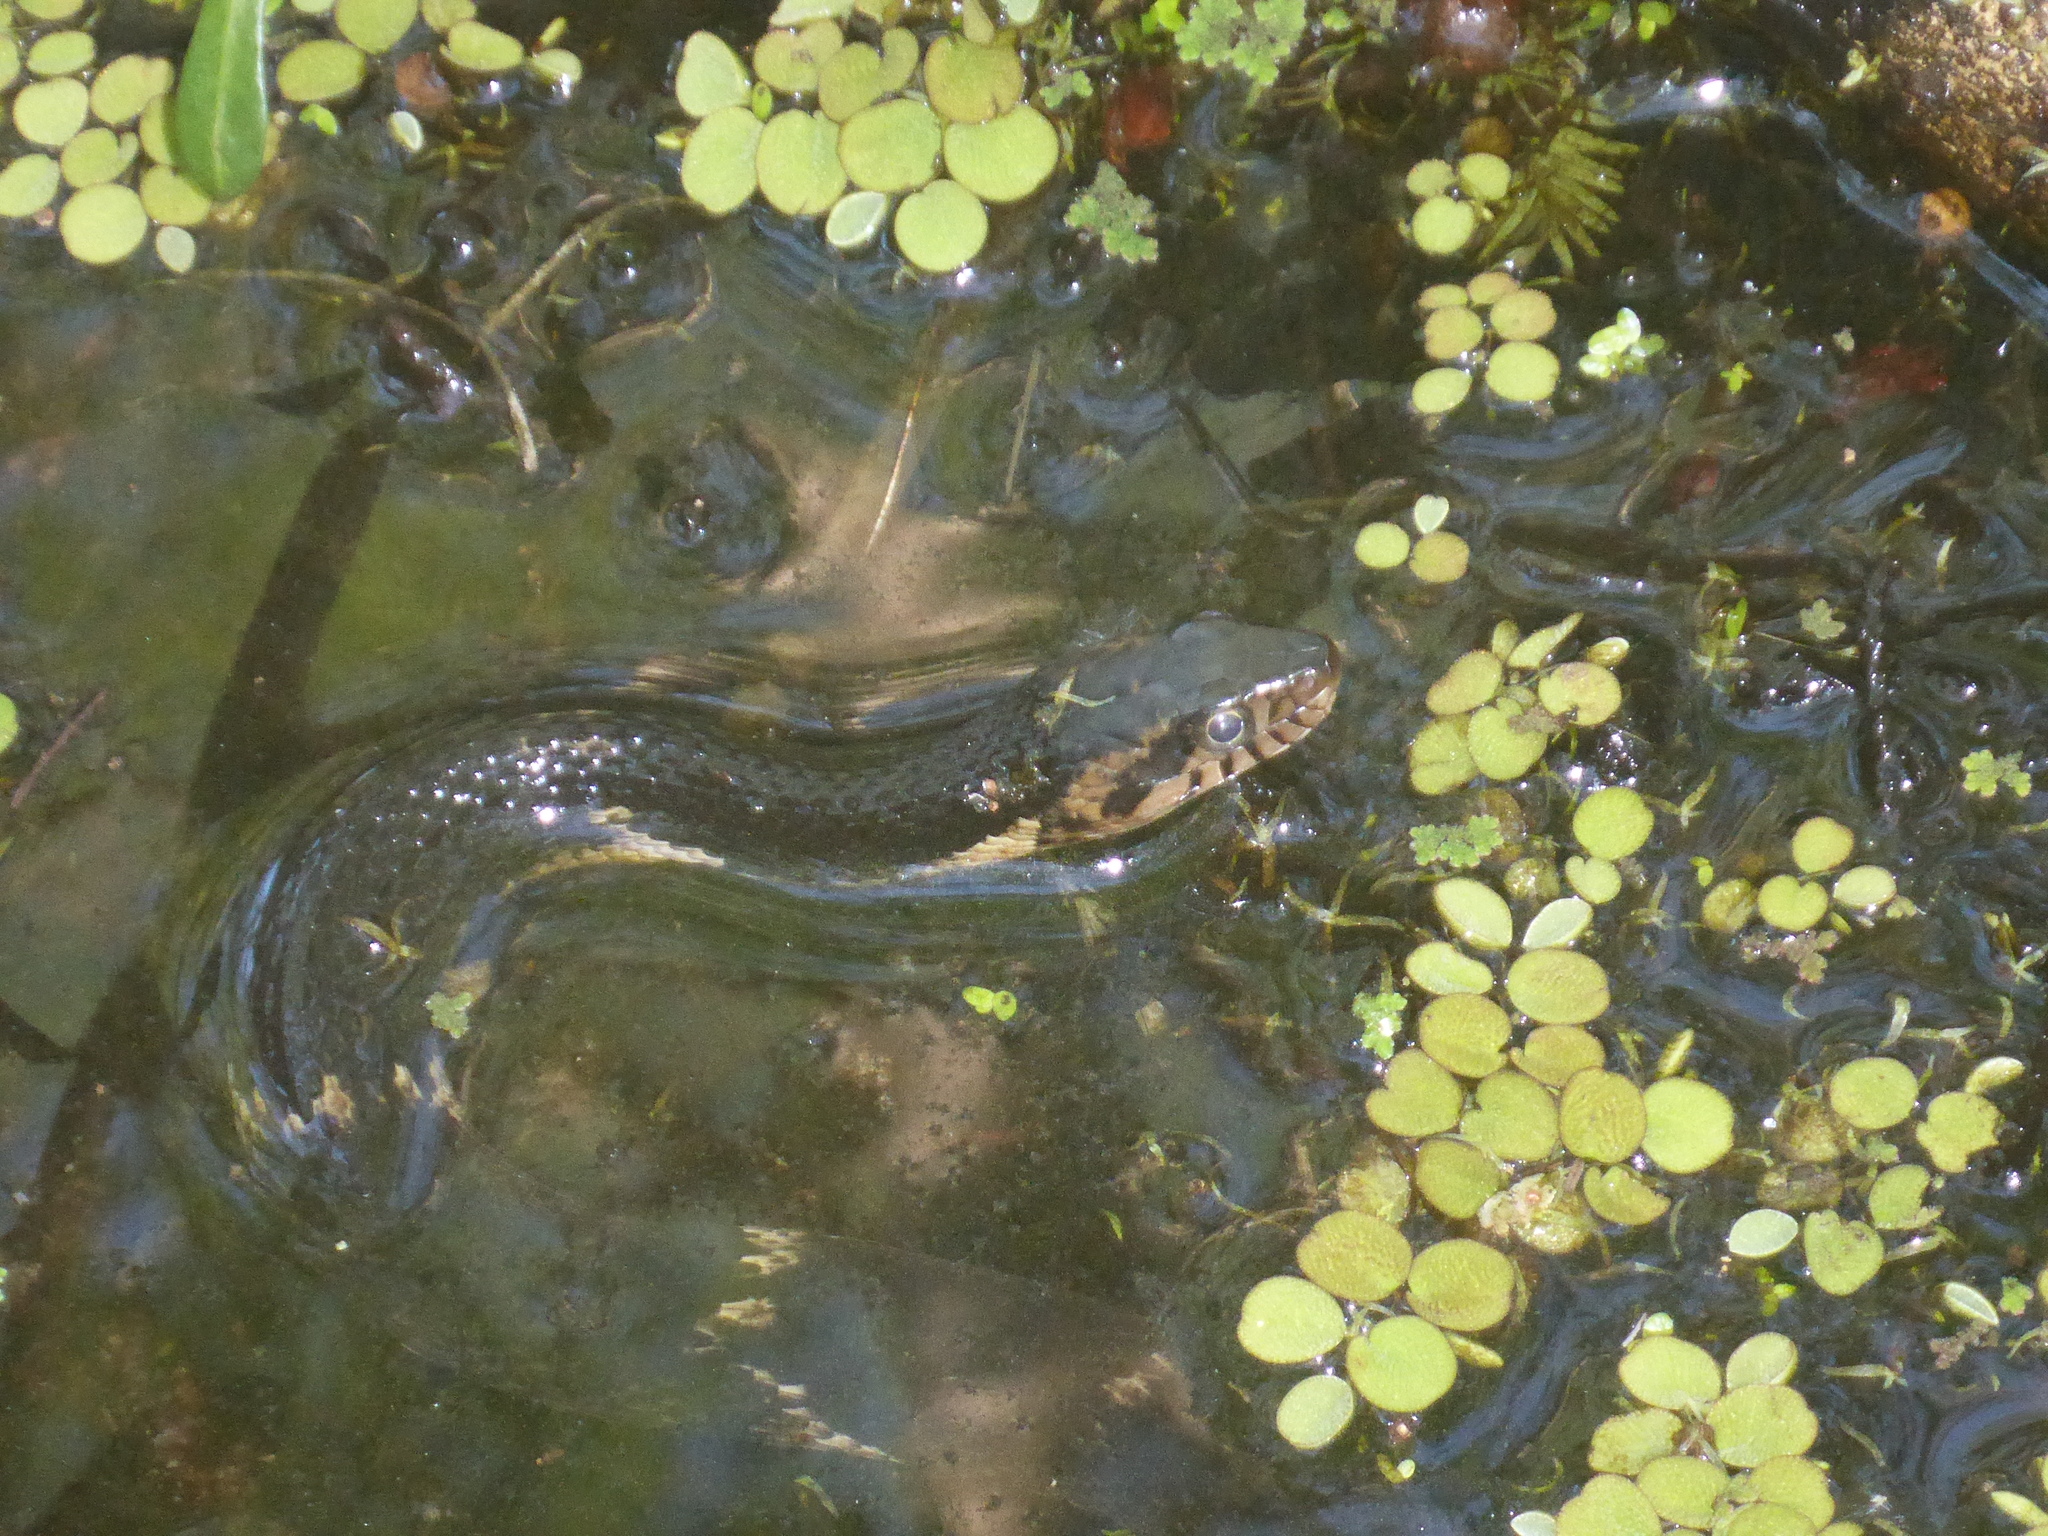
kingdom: Animalia
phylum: Chordata
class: Squamata
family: Colubridae
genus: Nerodia
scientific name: Nerodia fasciata
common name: Southern water snake
